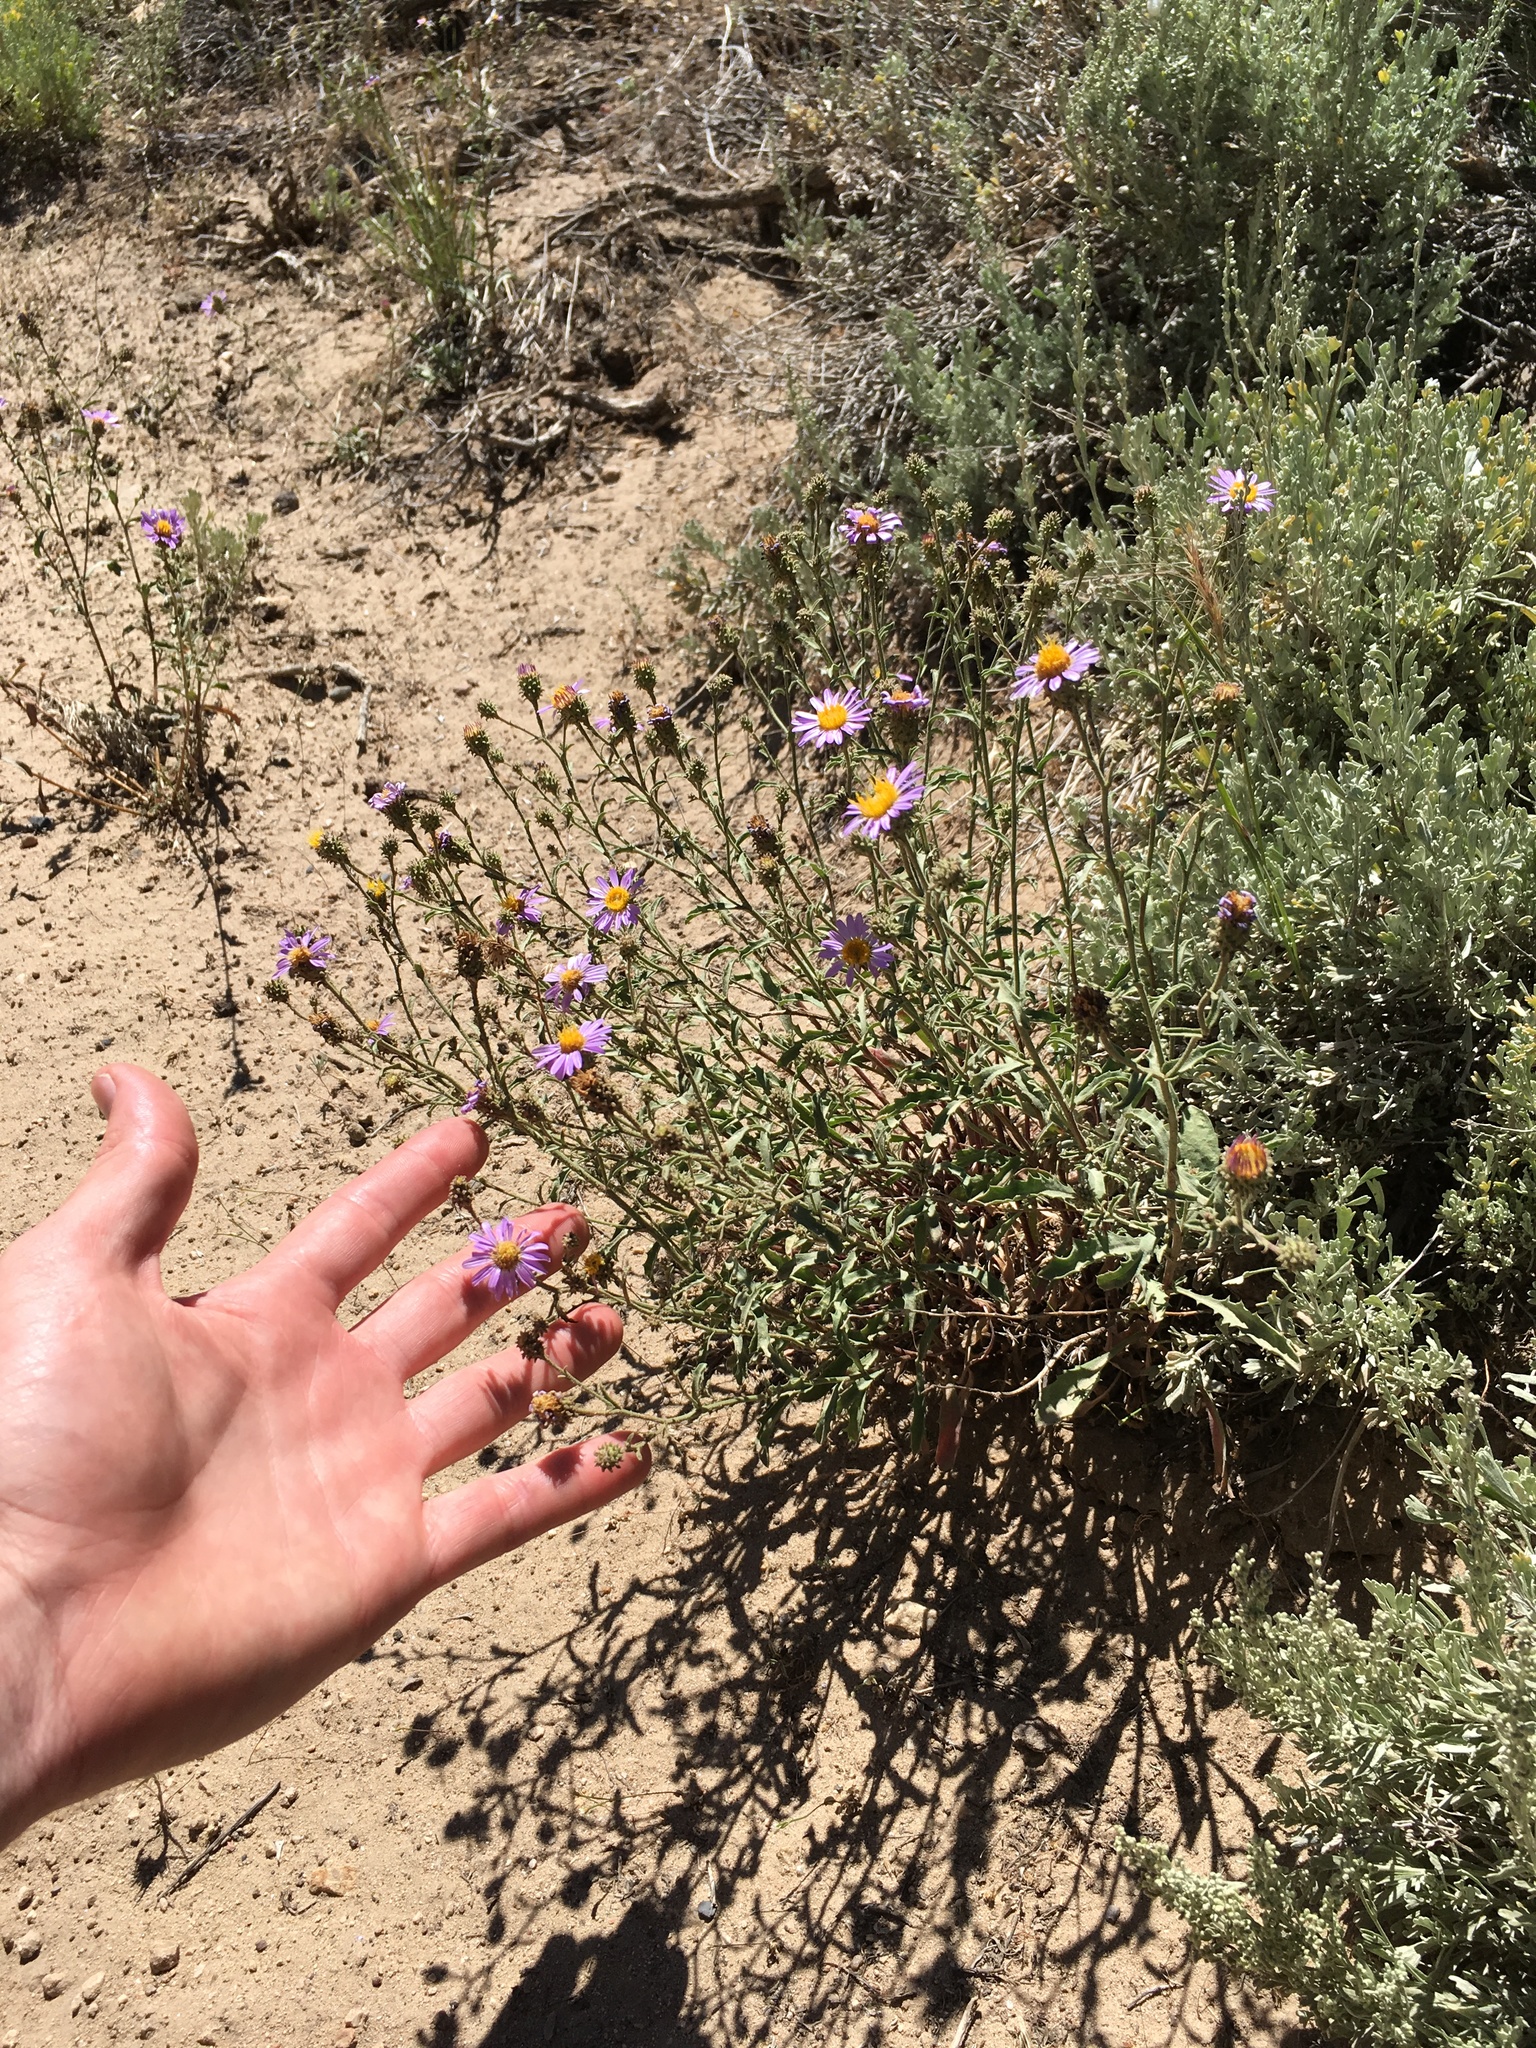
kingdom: Plantae
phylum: Tracheophyta
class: Magnoliopsida
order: Asterales
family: Asteraceae
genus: Dieteria
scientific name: Dieteria canescens
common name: Hoary-aster
